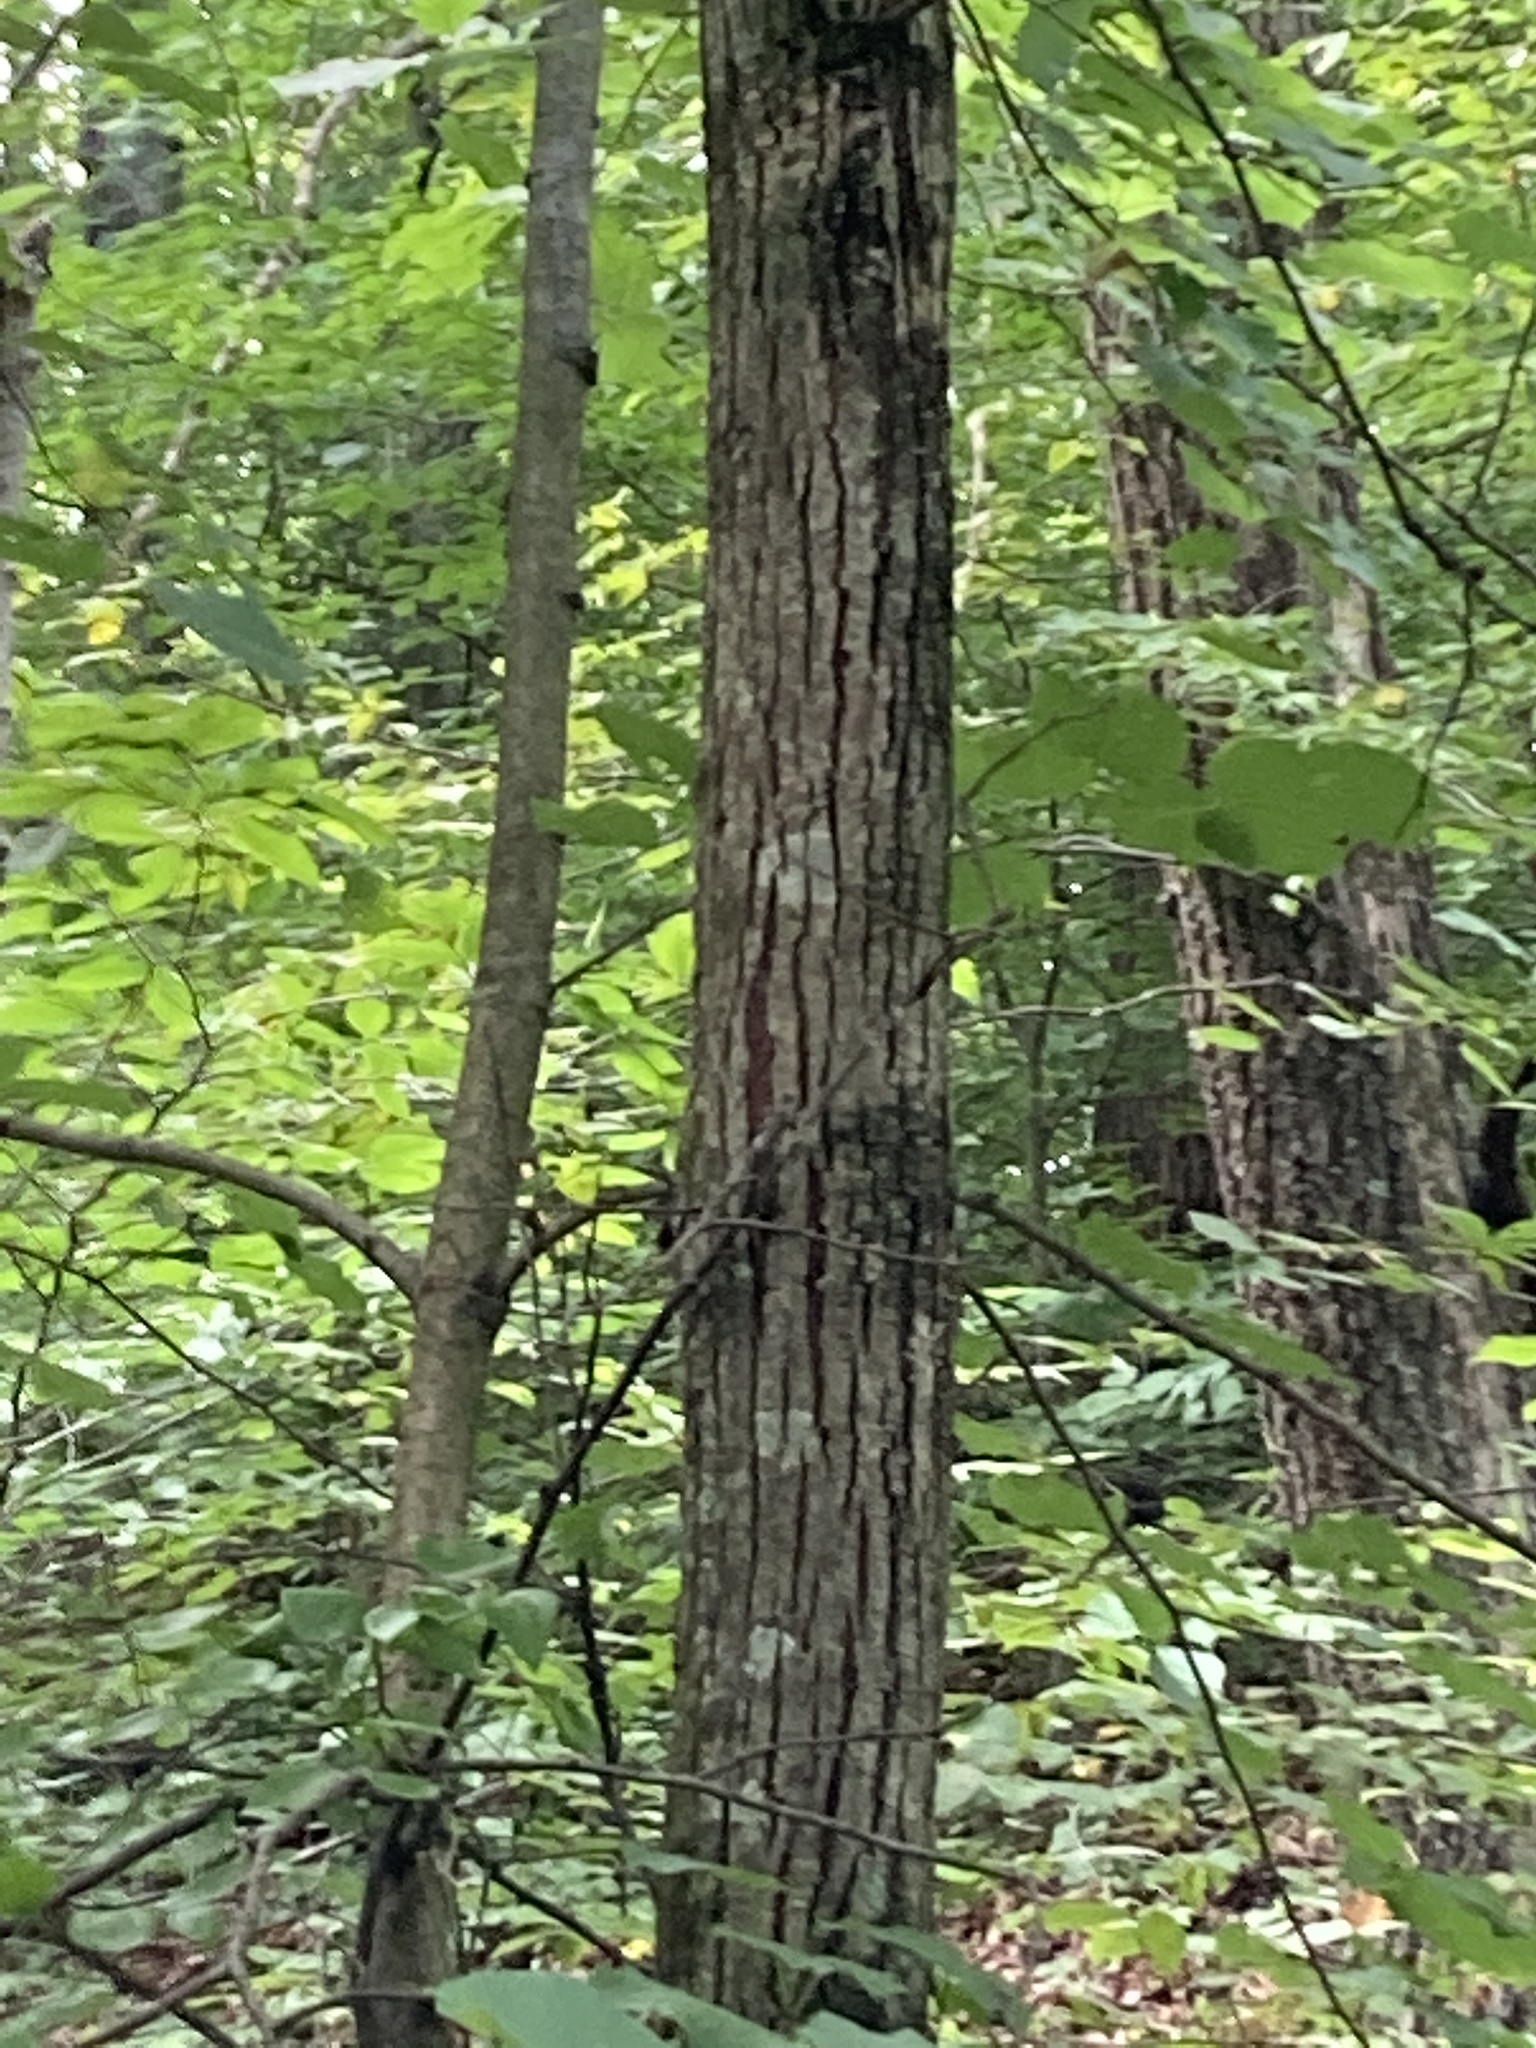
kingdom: Plantae
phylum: Tracheophyta
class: Magnoliopsida
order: Malvales
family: Malvaceae
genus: Tilia
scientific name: Tilia americana
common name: Basswood
